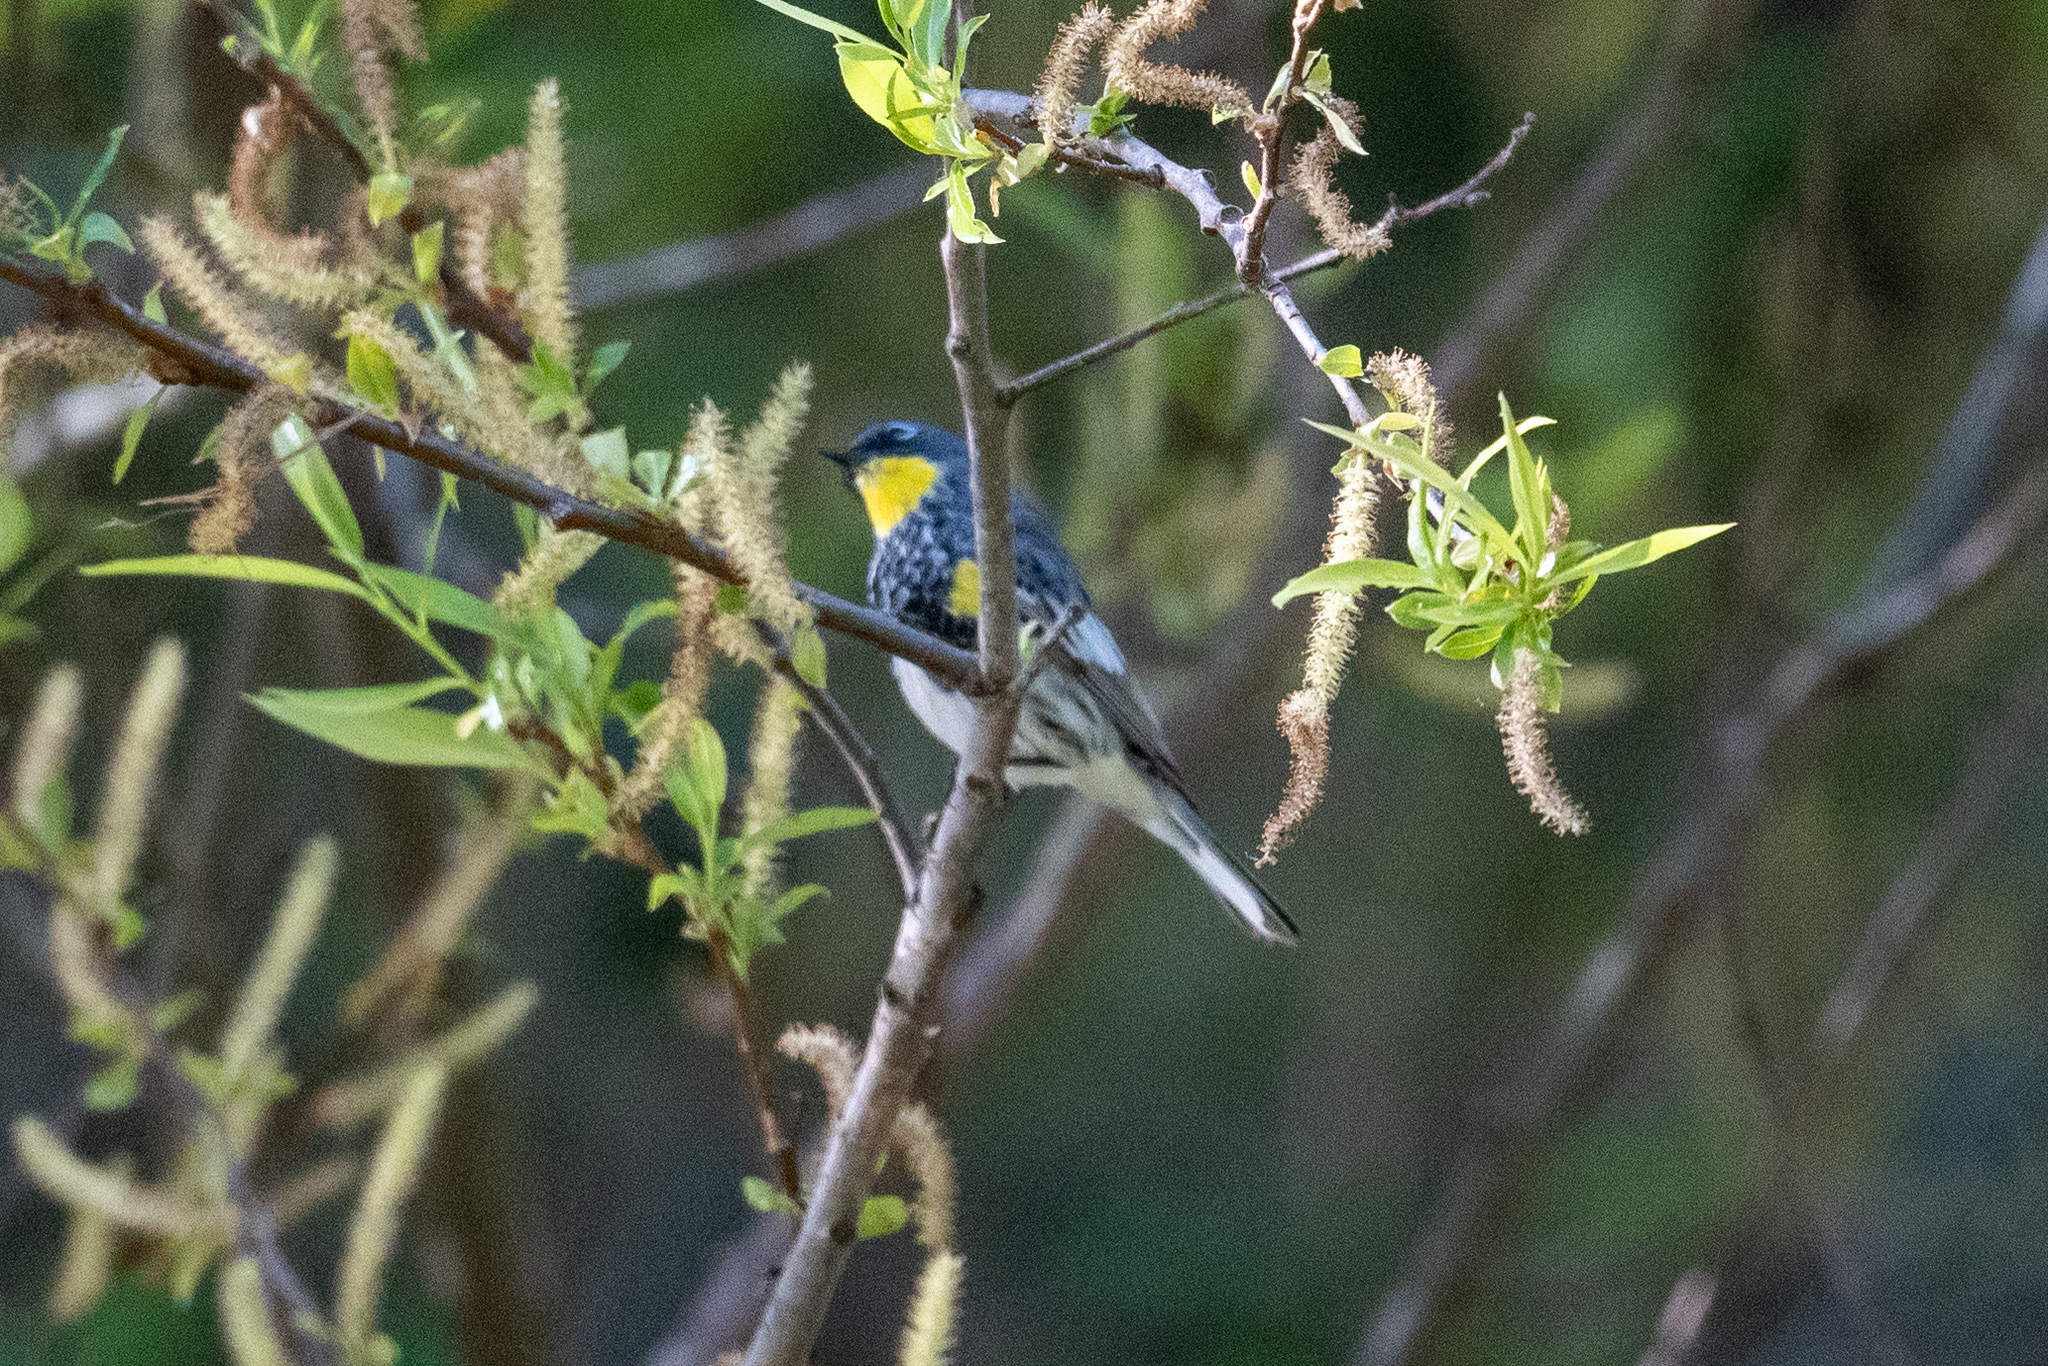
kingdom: Animalia
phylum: Chordata
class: Aves
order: Passeriformes
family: Parulidae
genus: Setophaga
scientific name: Setophaga coronata
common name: Myrtle warbler
